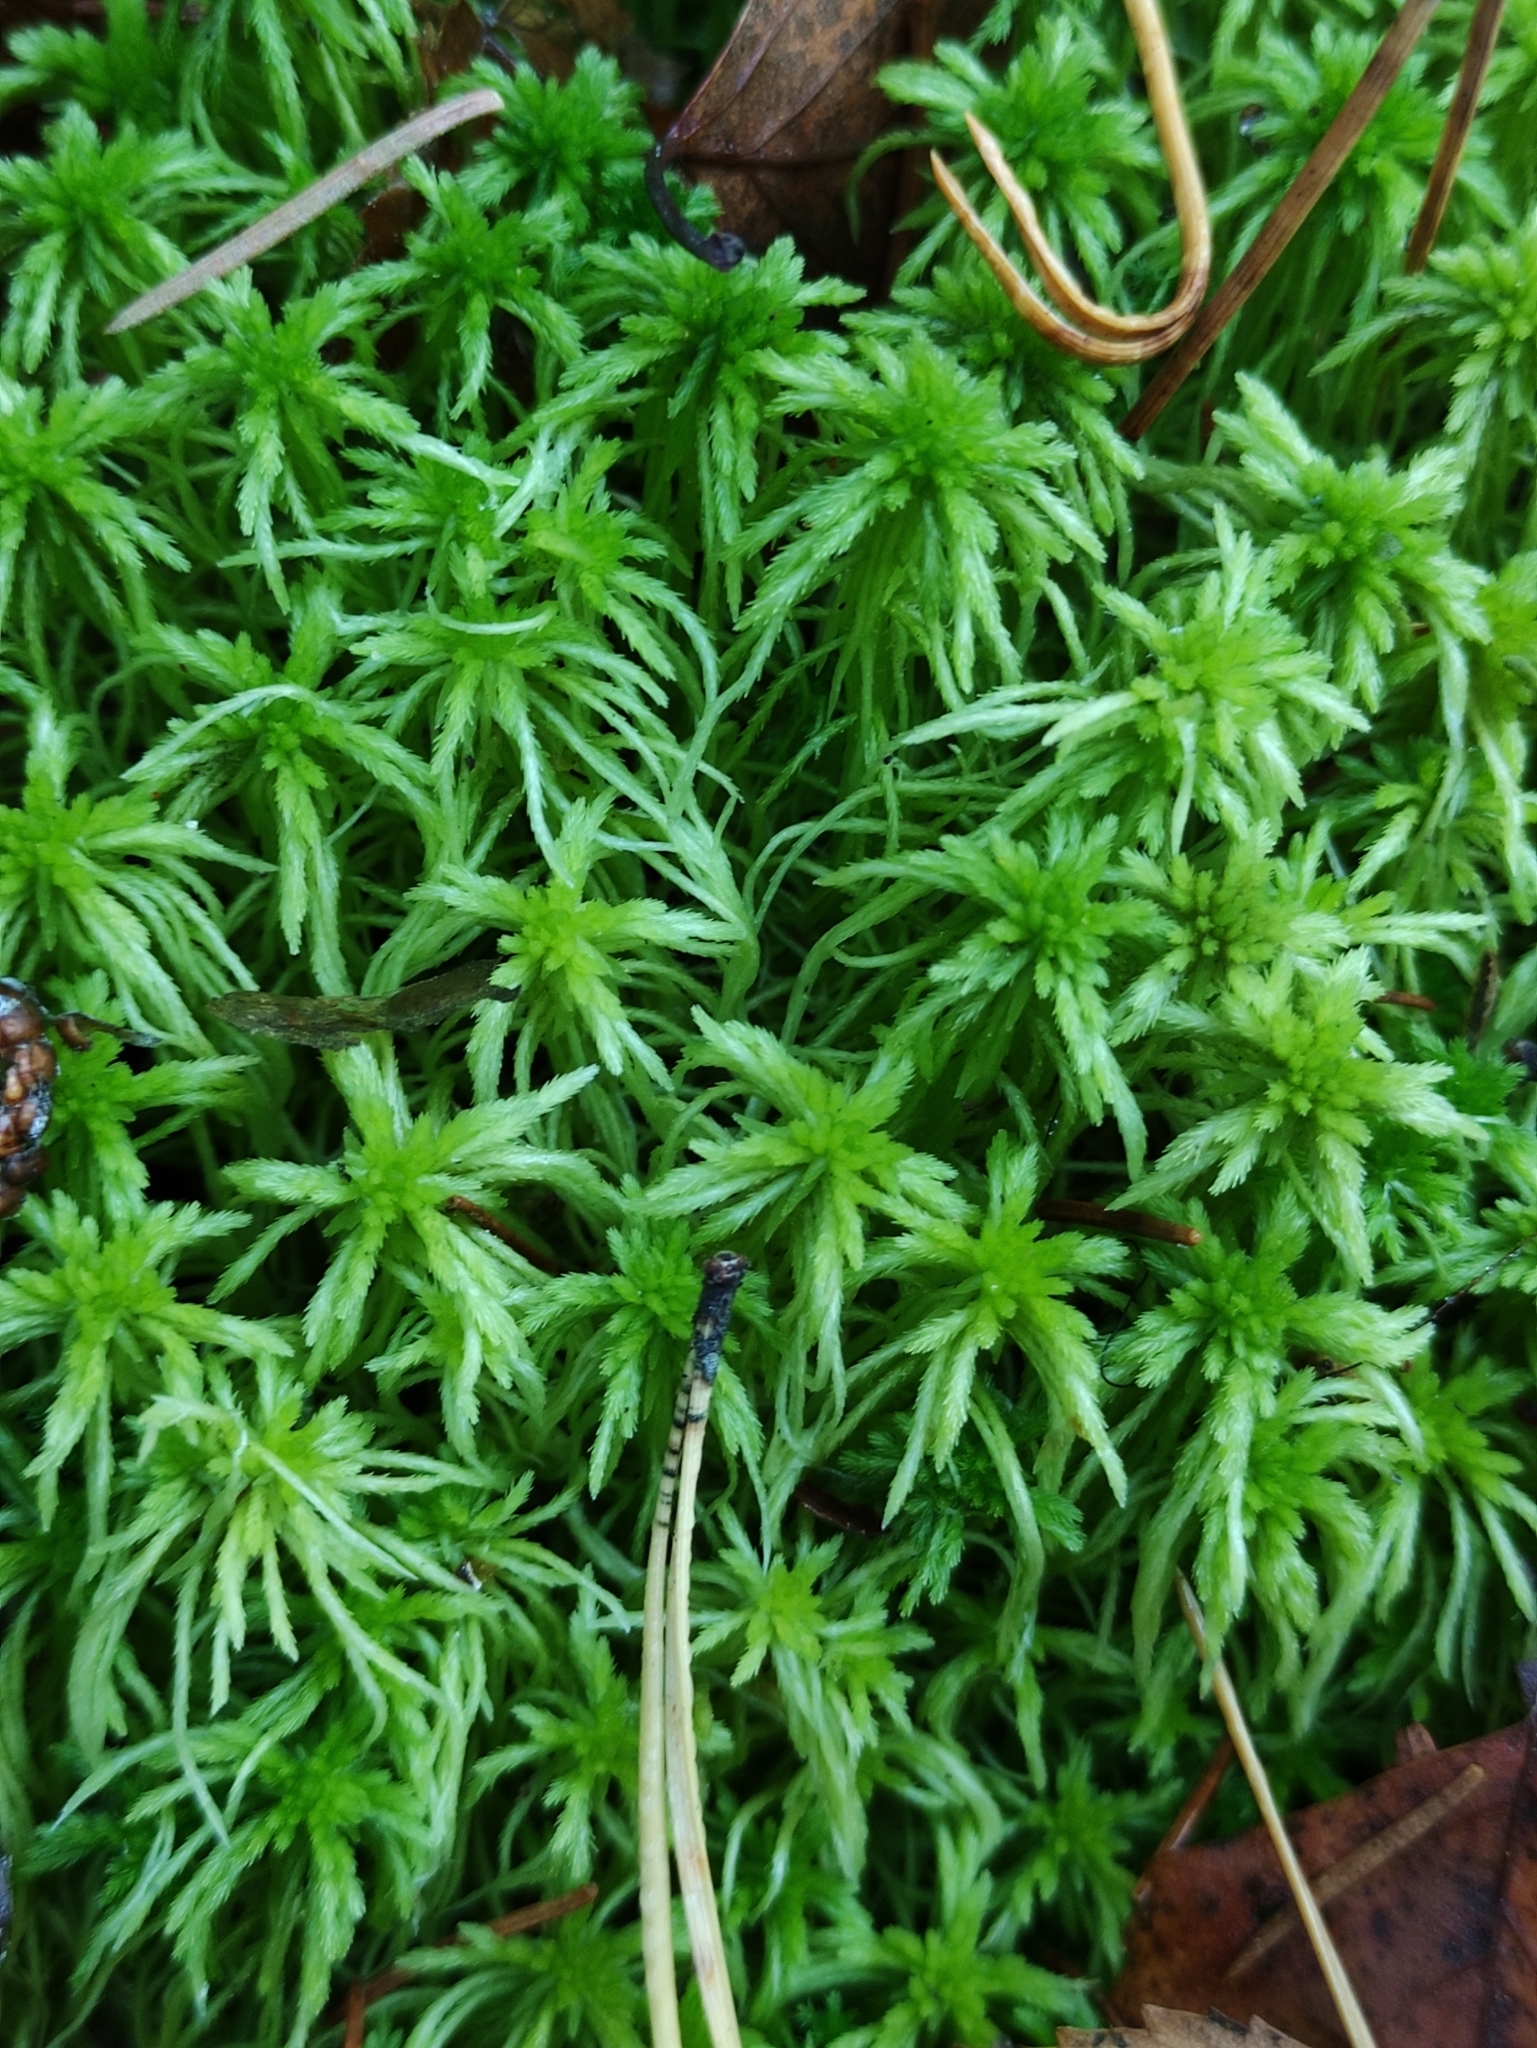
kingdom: Plantae
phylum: Bryophyta
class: Sphagnopsida
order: Sphagnales
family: Sphagnaceae
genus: Sphagnum
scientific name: Sphagnum girgensohnii
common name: Girgensohn's peat moss
